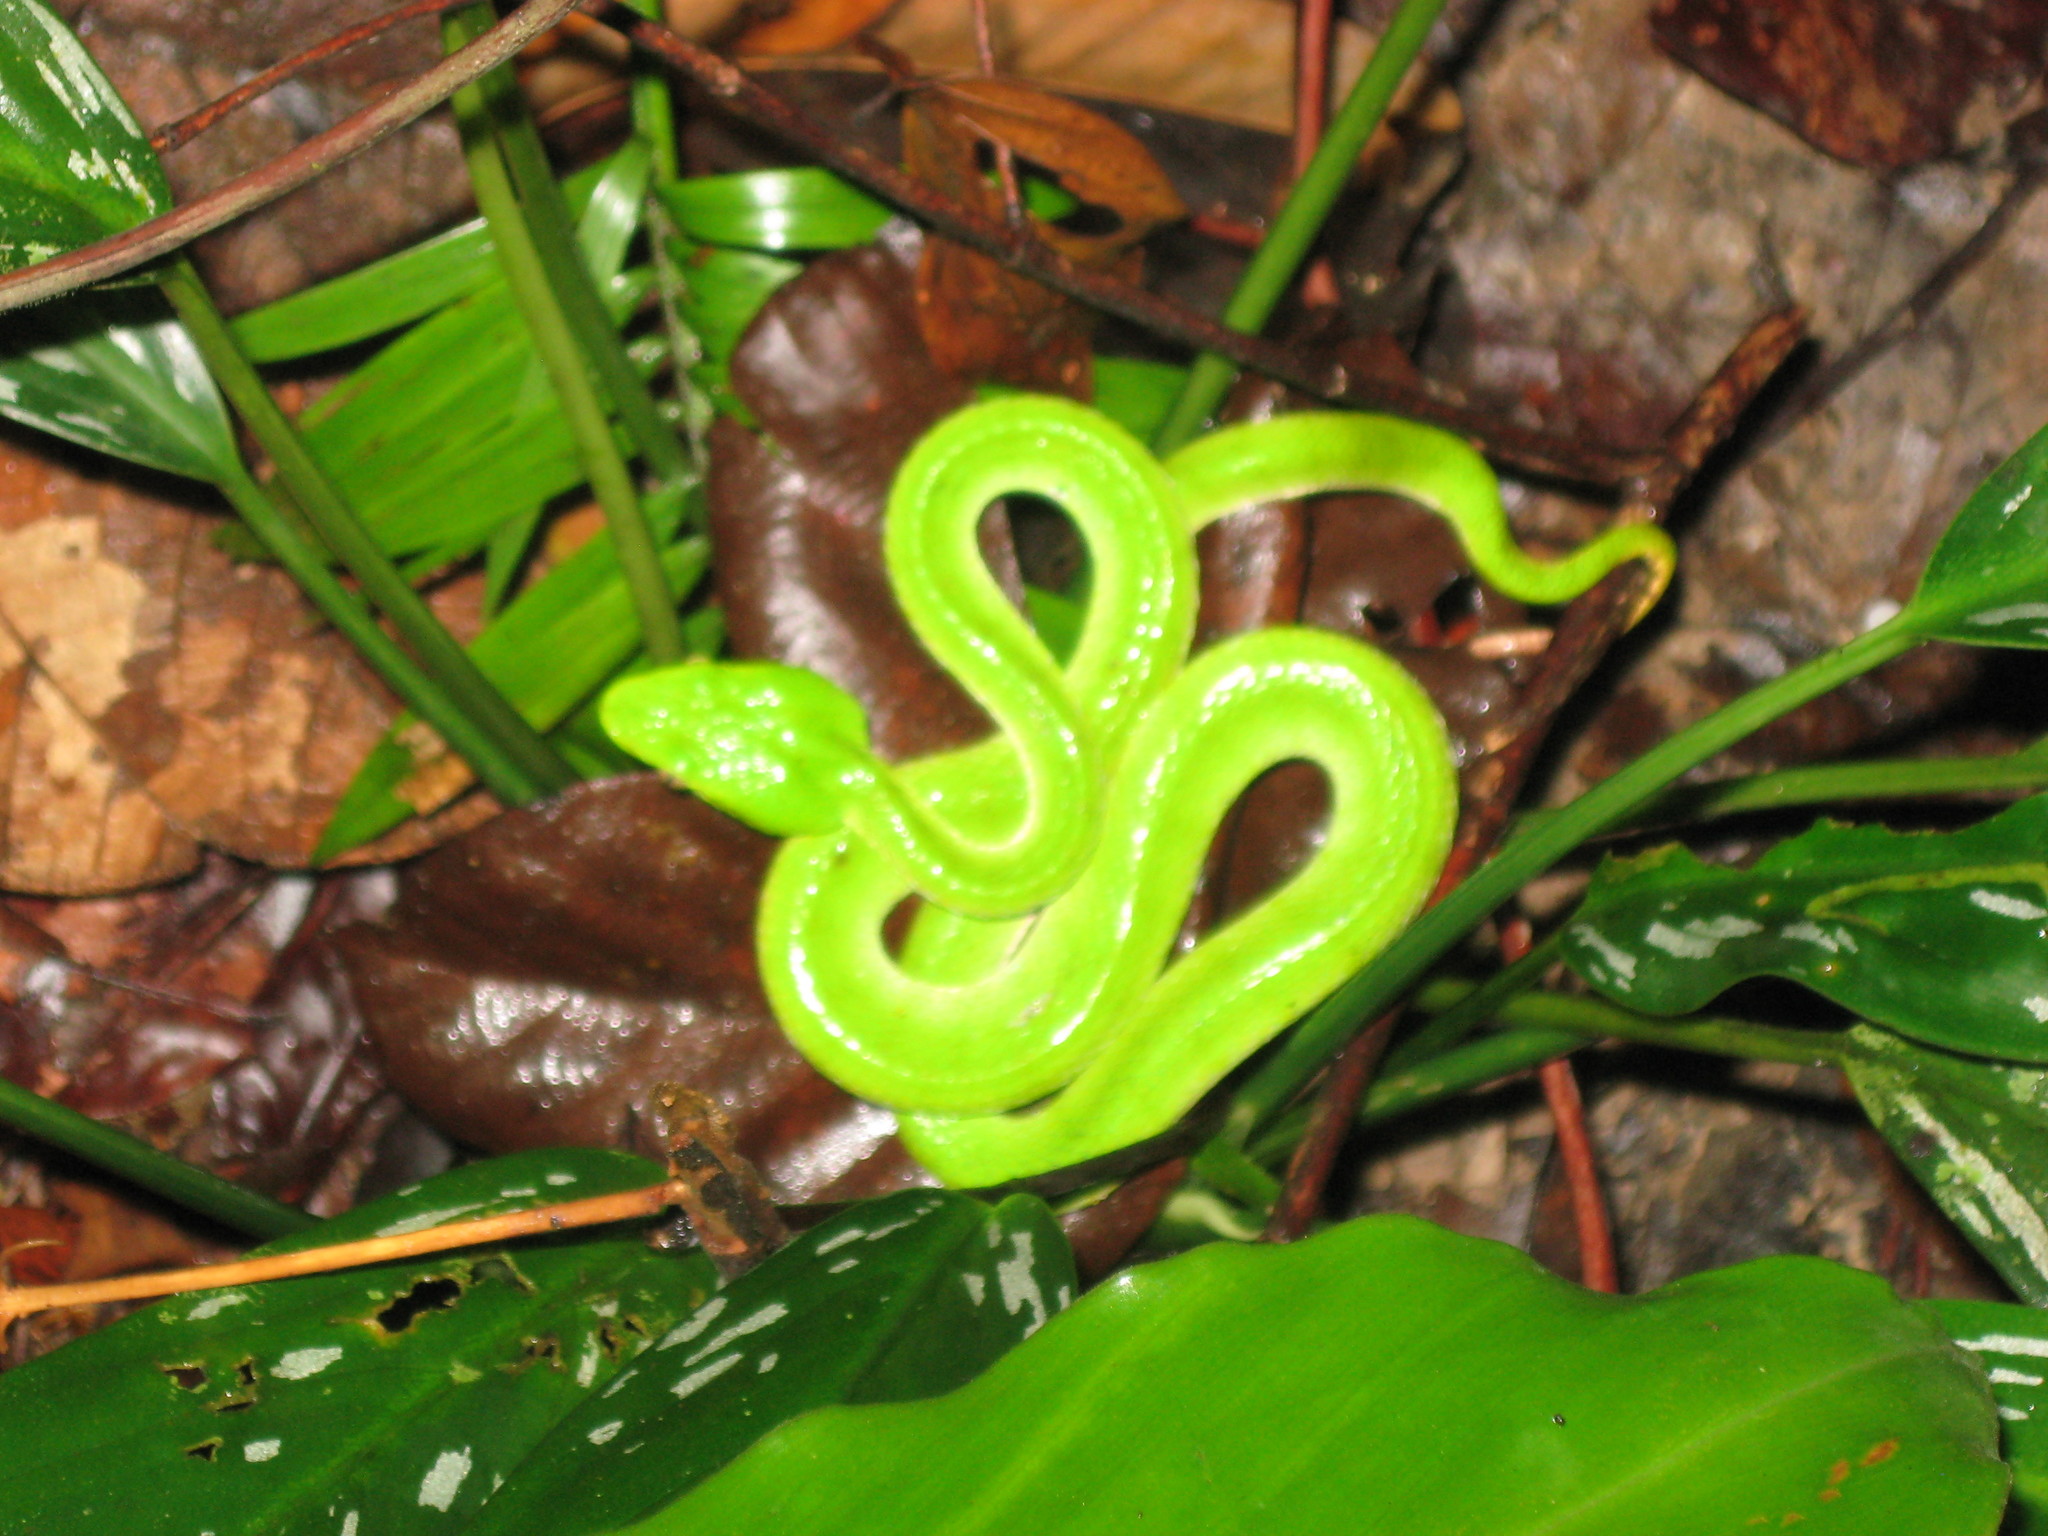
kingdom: Animalia
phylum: Chordata
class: Squamata
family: Viperidae
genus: Trimeresurus
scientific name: Trimeresurus sabahi
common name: Sabah bamboo pit viper
